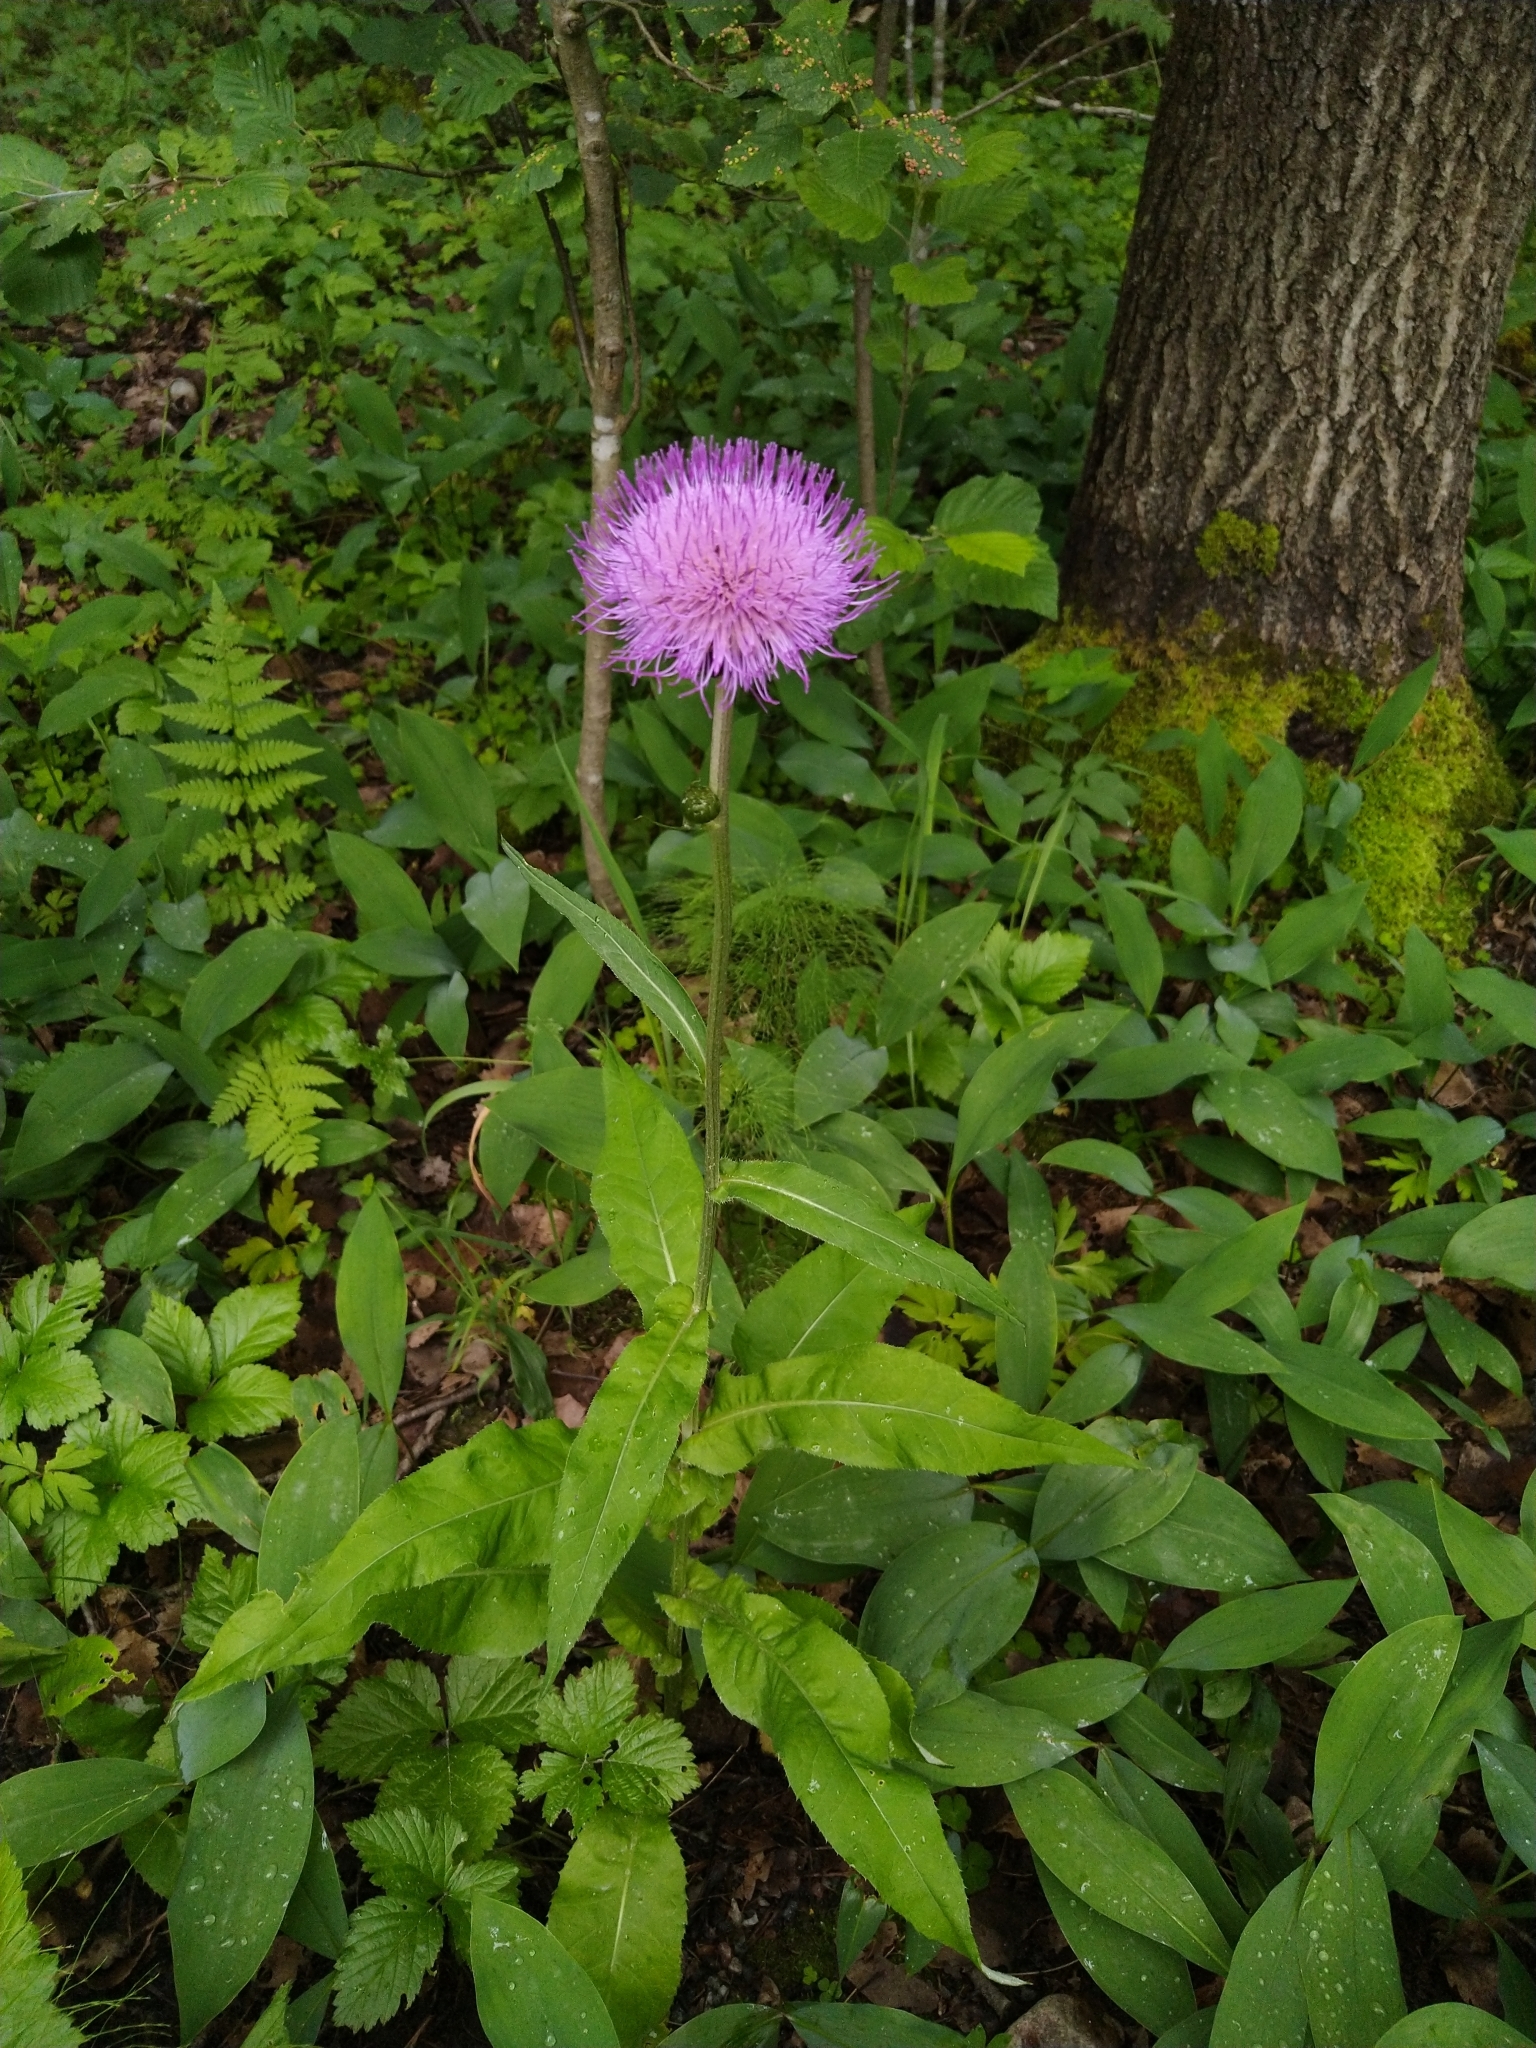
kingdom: Plantae
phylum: Tracheophyta
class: Magnoliopsida
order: Asterales
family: Asteraceae
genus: Cirsium
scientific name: Cirsium heterophyllum
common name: Melancholy thistle
